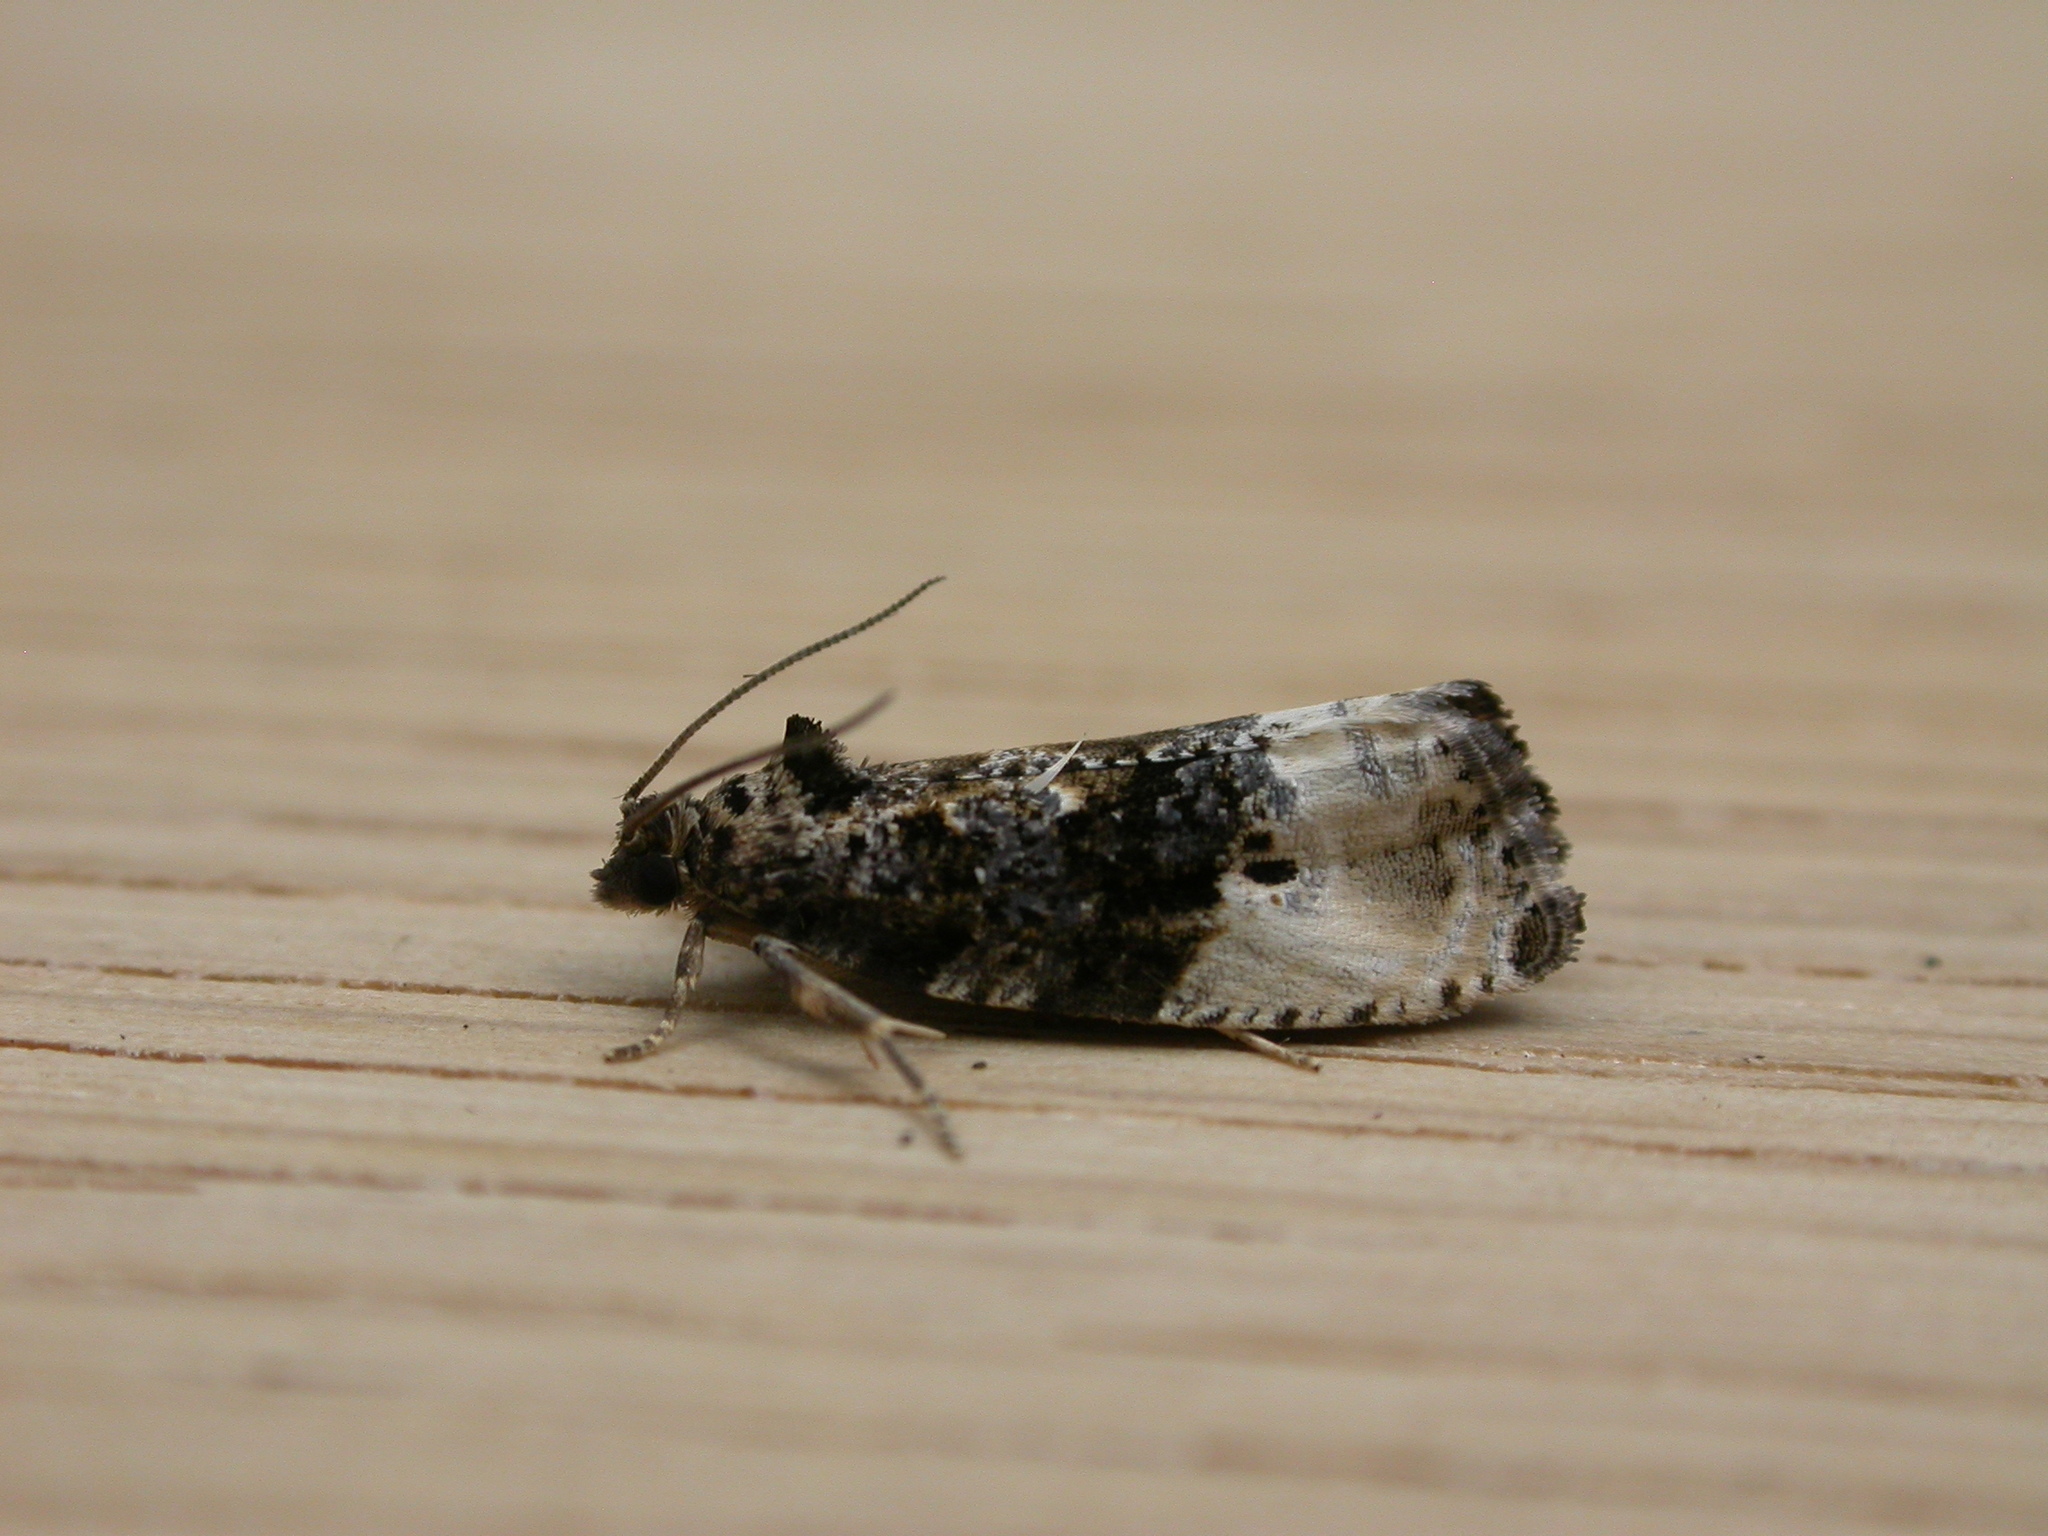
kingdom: Animalia
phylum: Arthropoda
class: Insecta
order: Lepidoptera
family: Tortricidae
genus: Hedya
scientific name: Hedya nubiferana
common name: Marbled orchard tortrix
